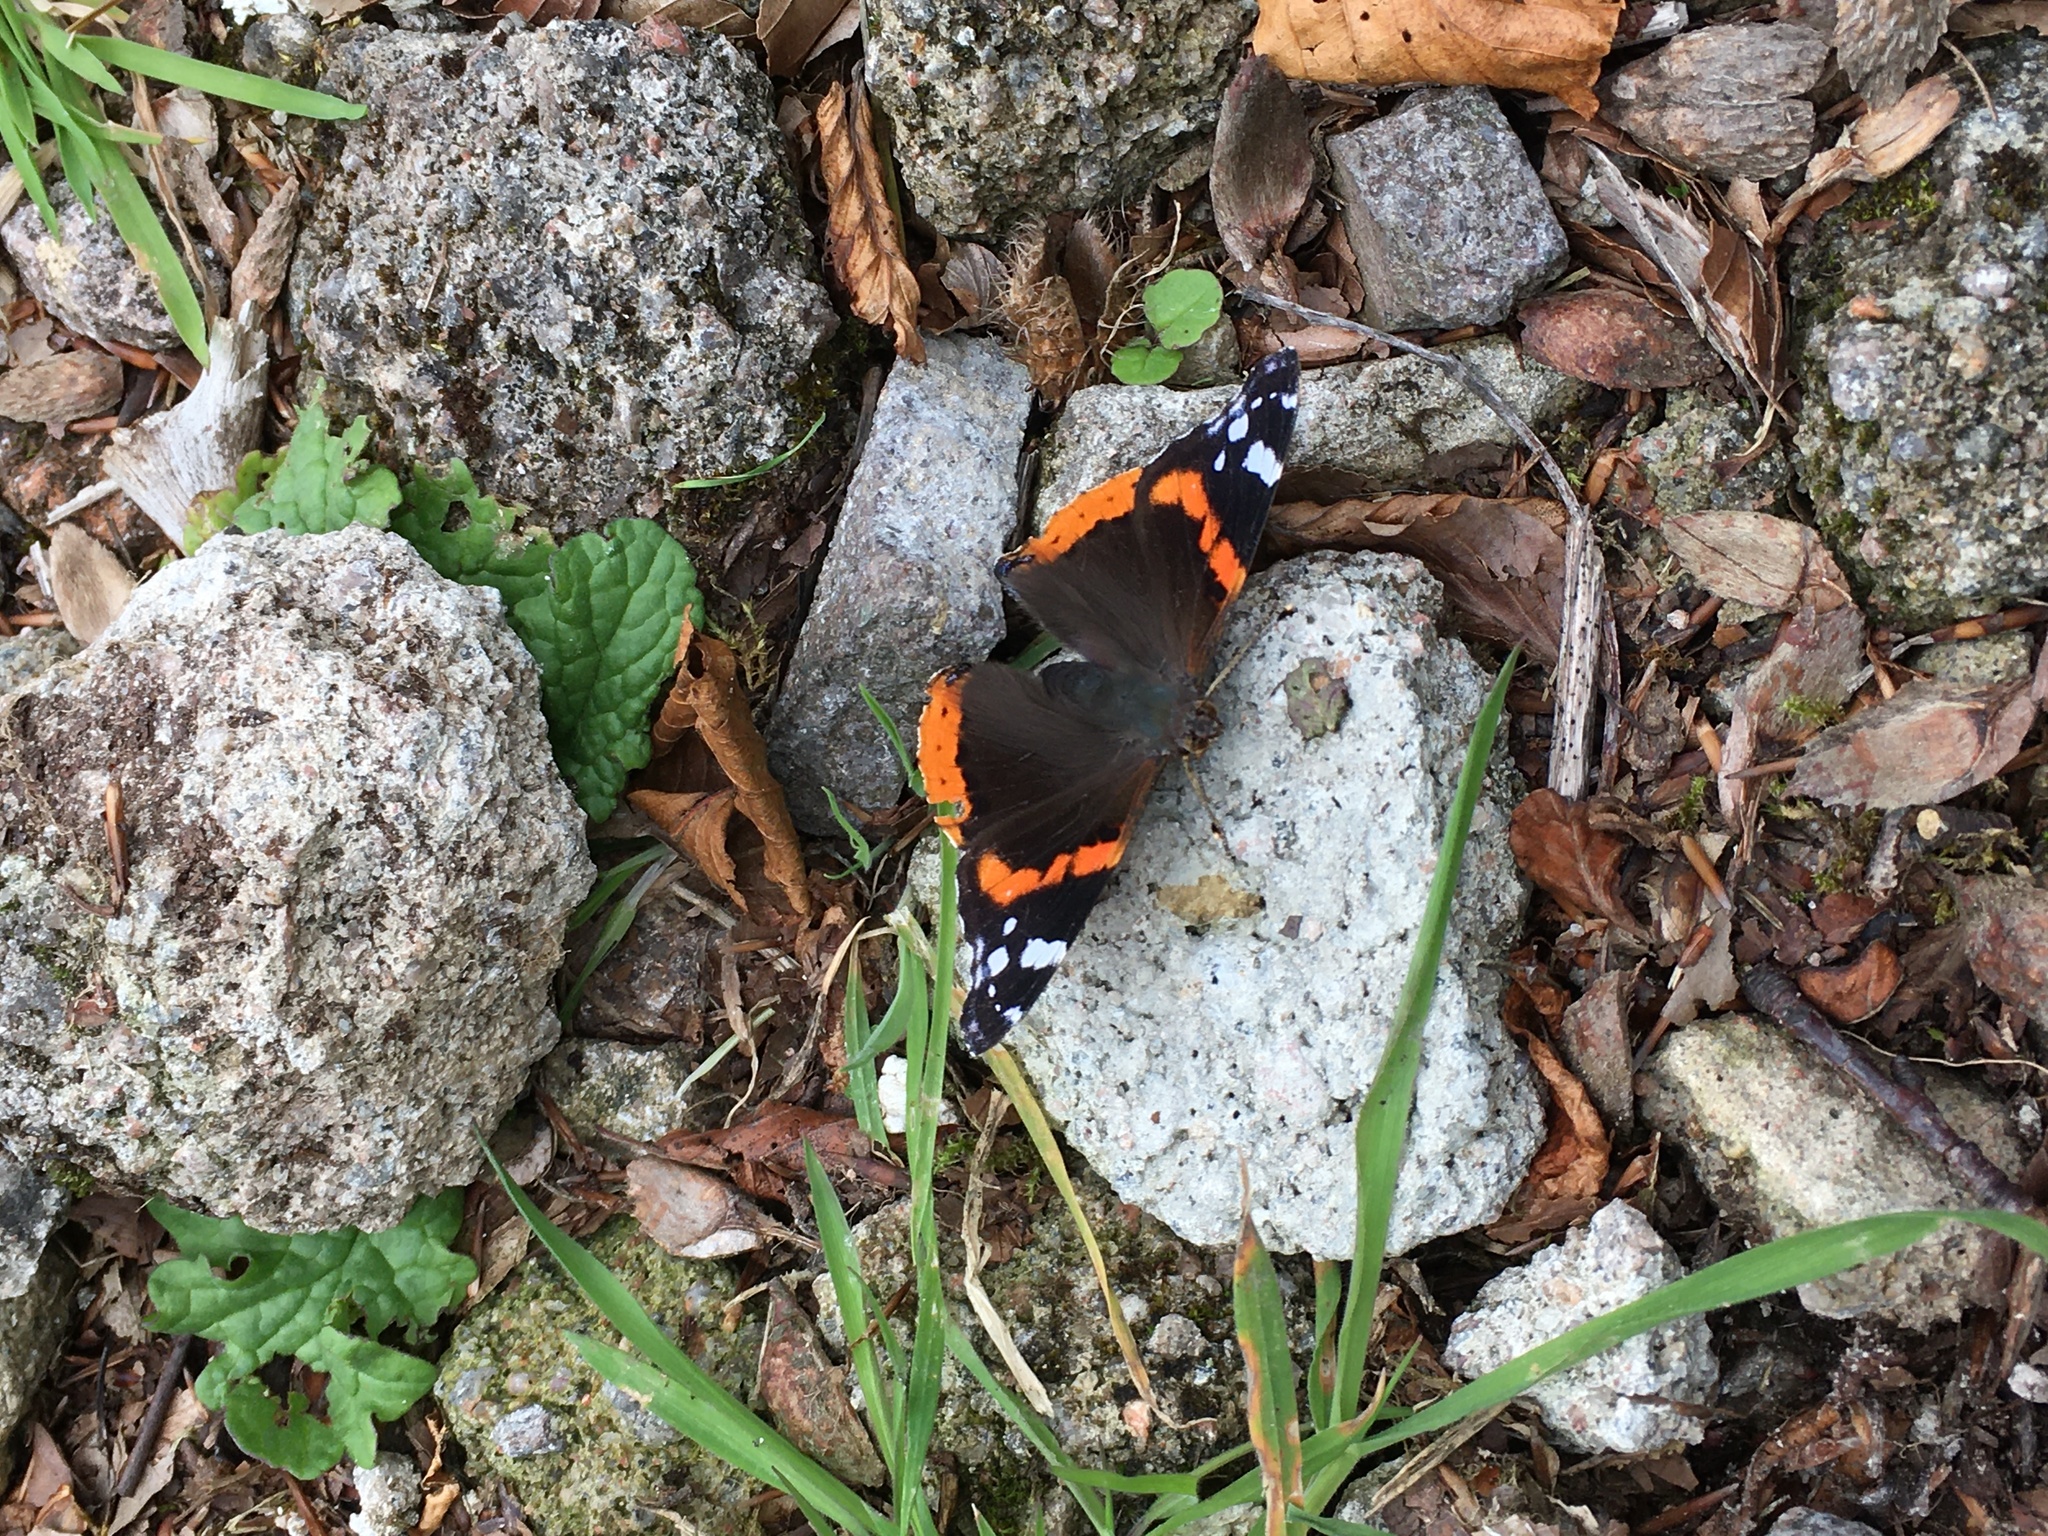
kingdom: Animalia
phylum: Arthropoda
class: Insecta
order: Lepidoptera
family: Nymphalidae
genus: Vanessa
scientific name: Vanessa atalanta
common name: Red admiral
